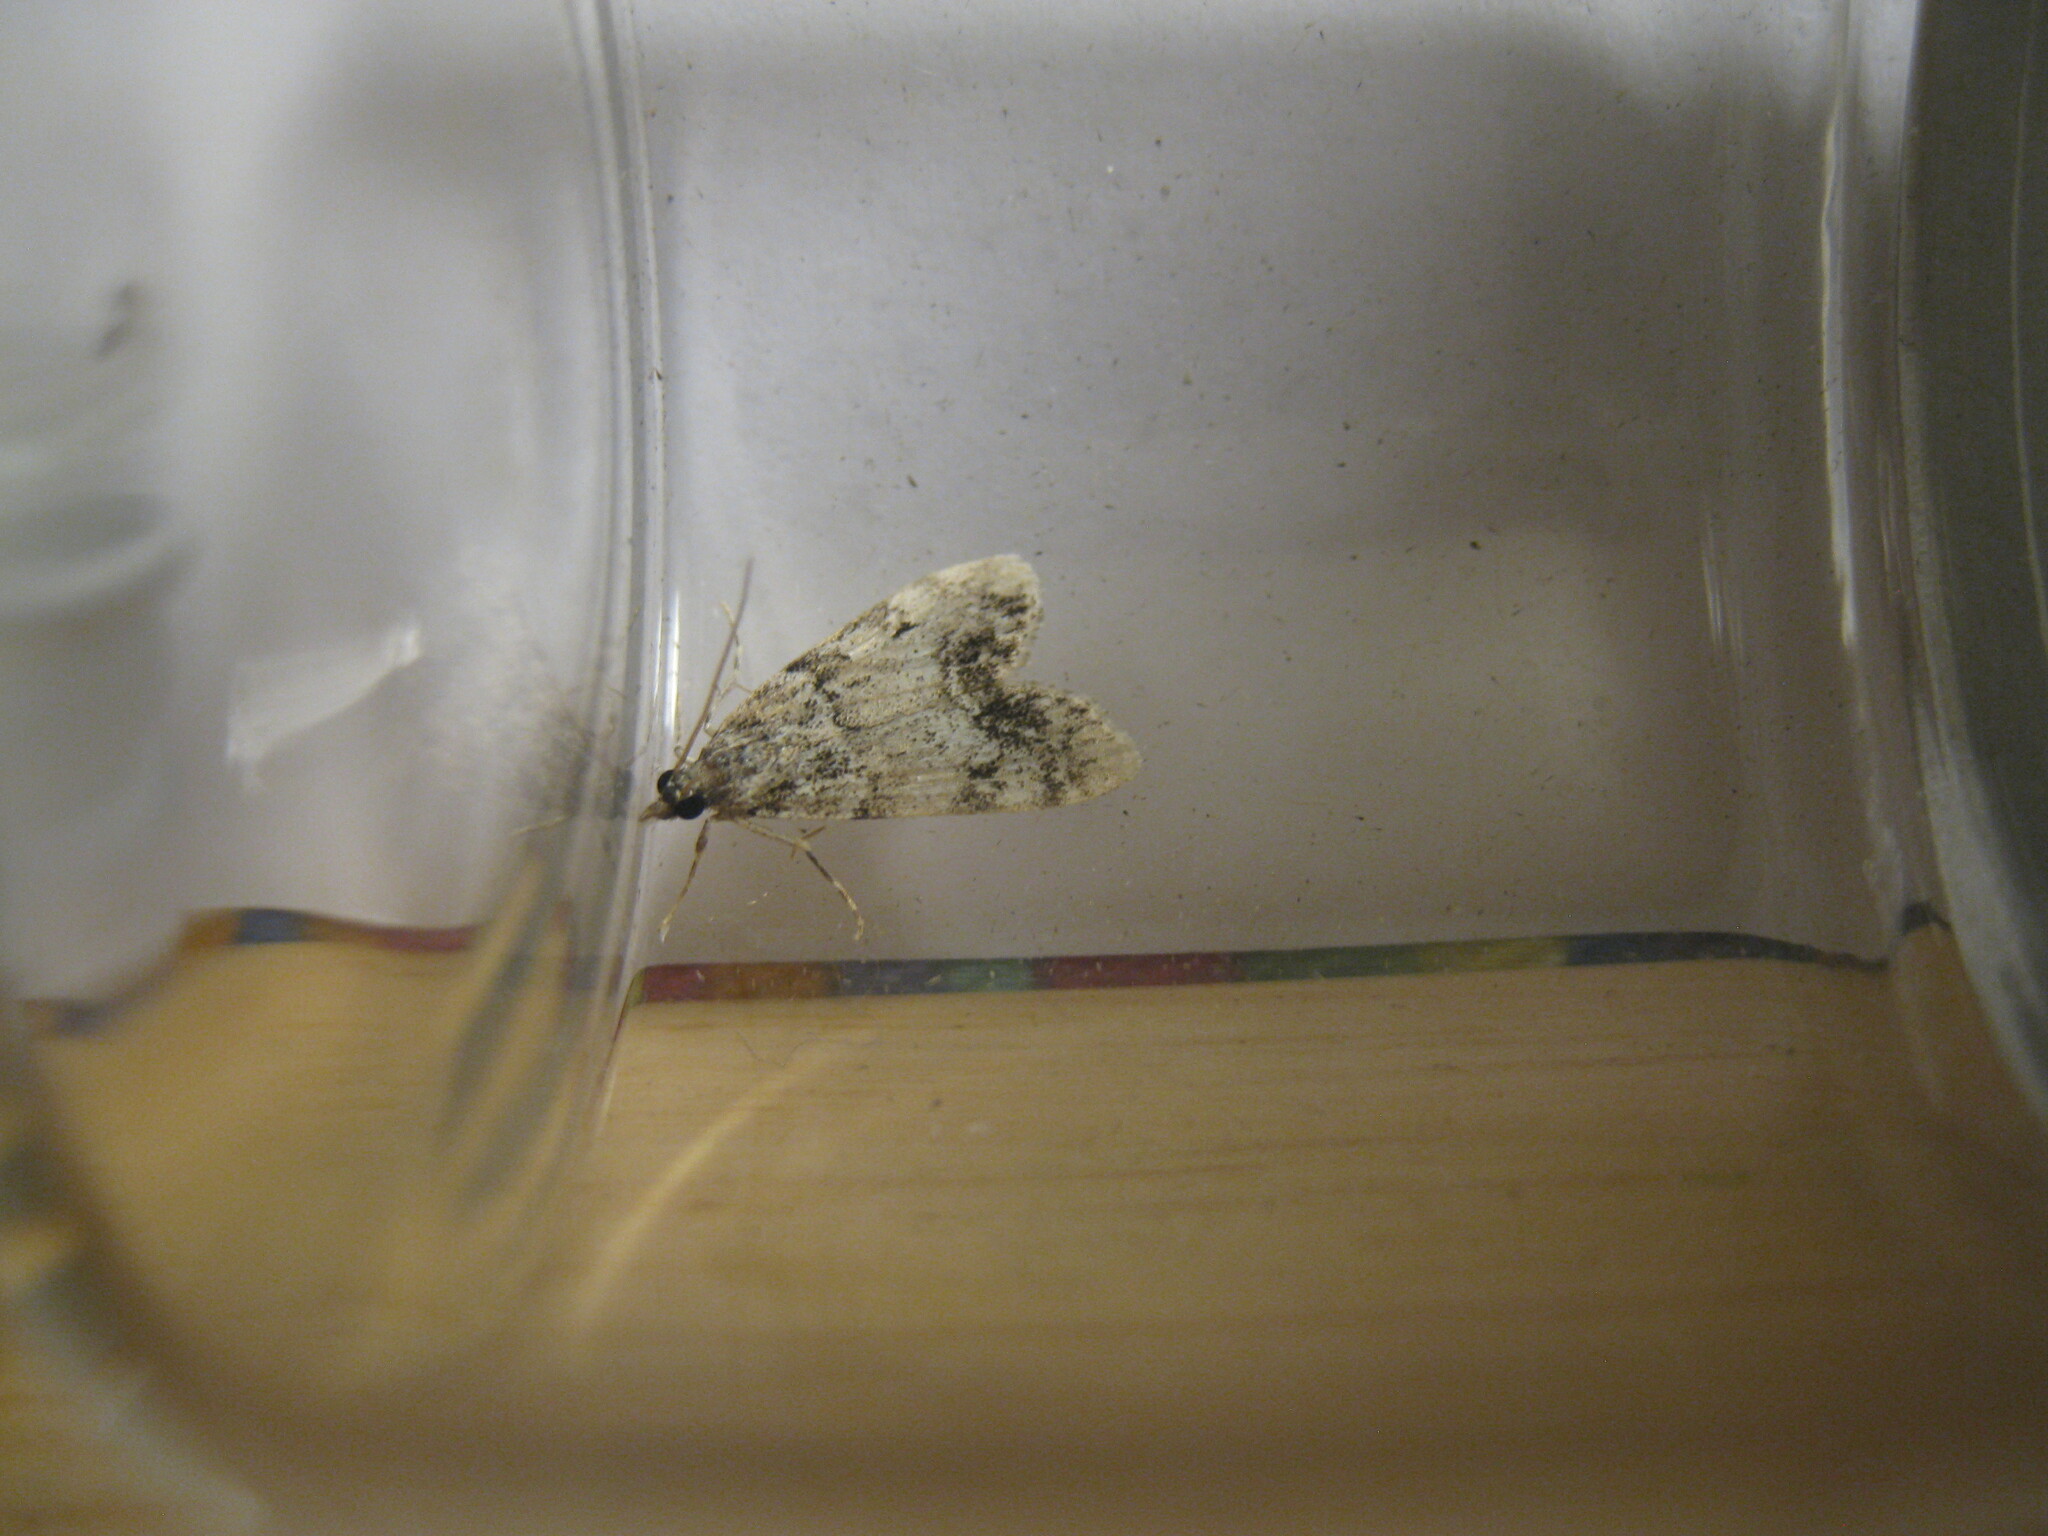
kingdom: Animalia
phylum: Arthropoda
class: Insecta
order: Lepidoptera
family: Crambidae
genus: Eudonia
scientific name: Eudonia lacustrata
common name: Little grey
